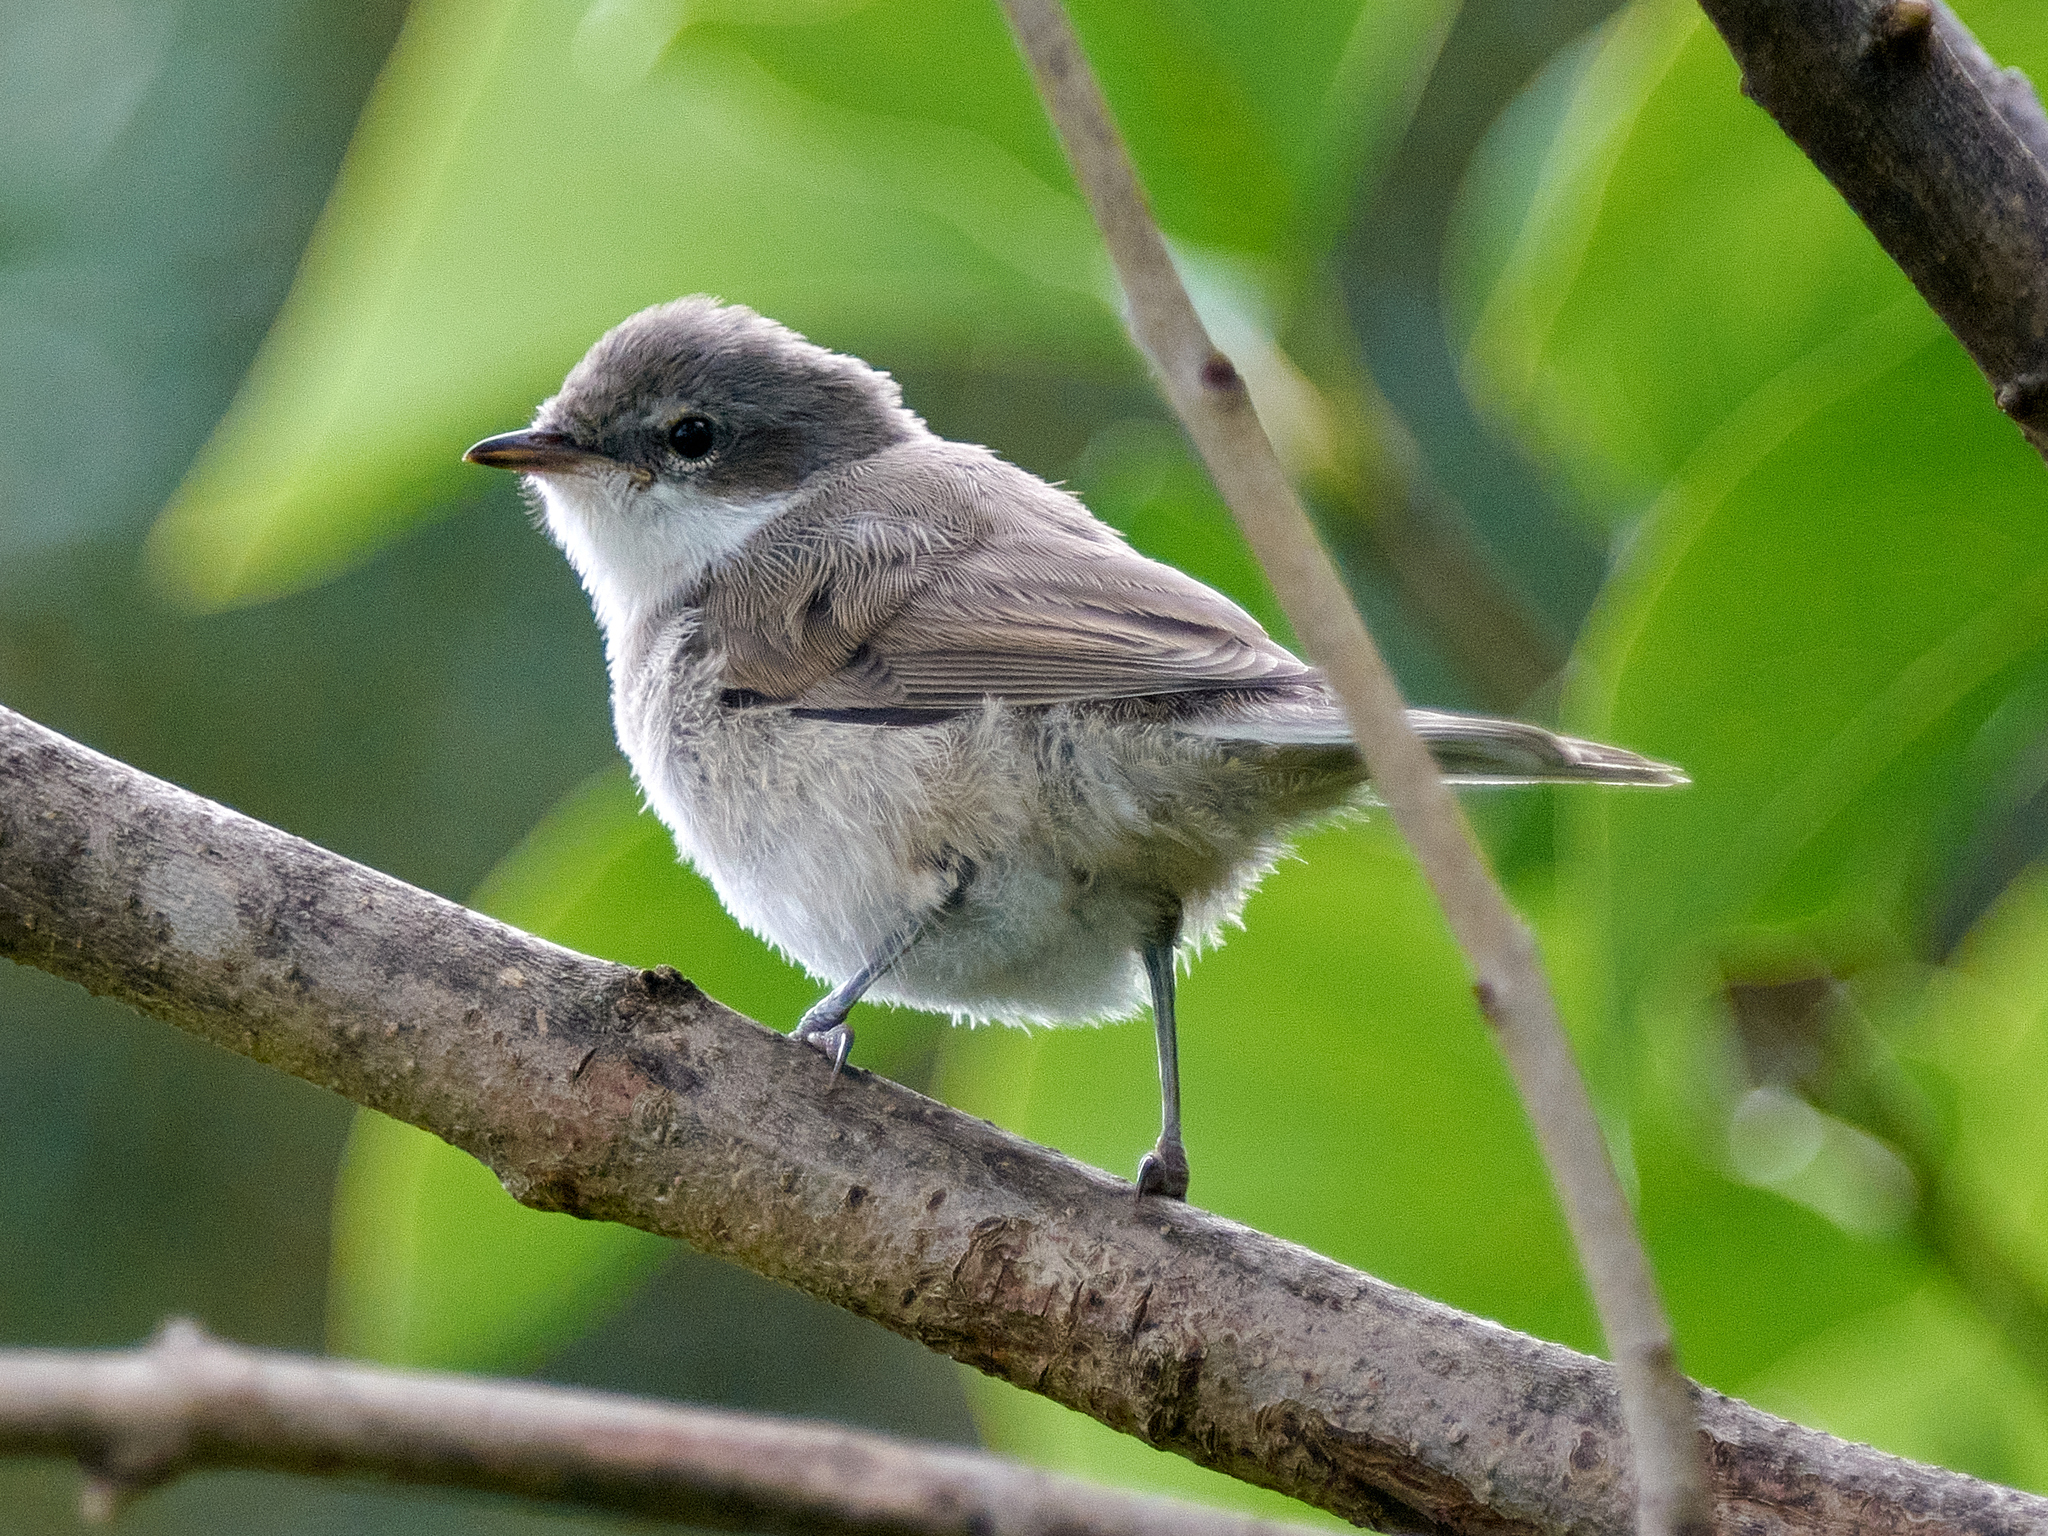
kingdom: Animalia
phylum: Chordata
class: Aves
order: Passeriformes
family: Sylviidae
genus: Sylvia
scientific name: Sylvia curruca
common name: Lesser whitethroat
